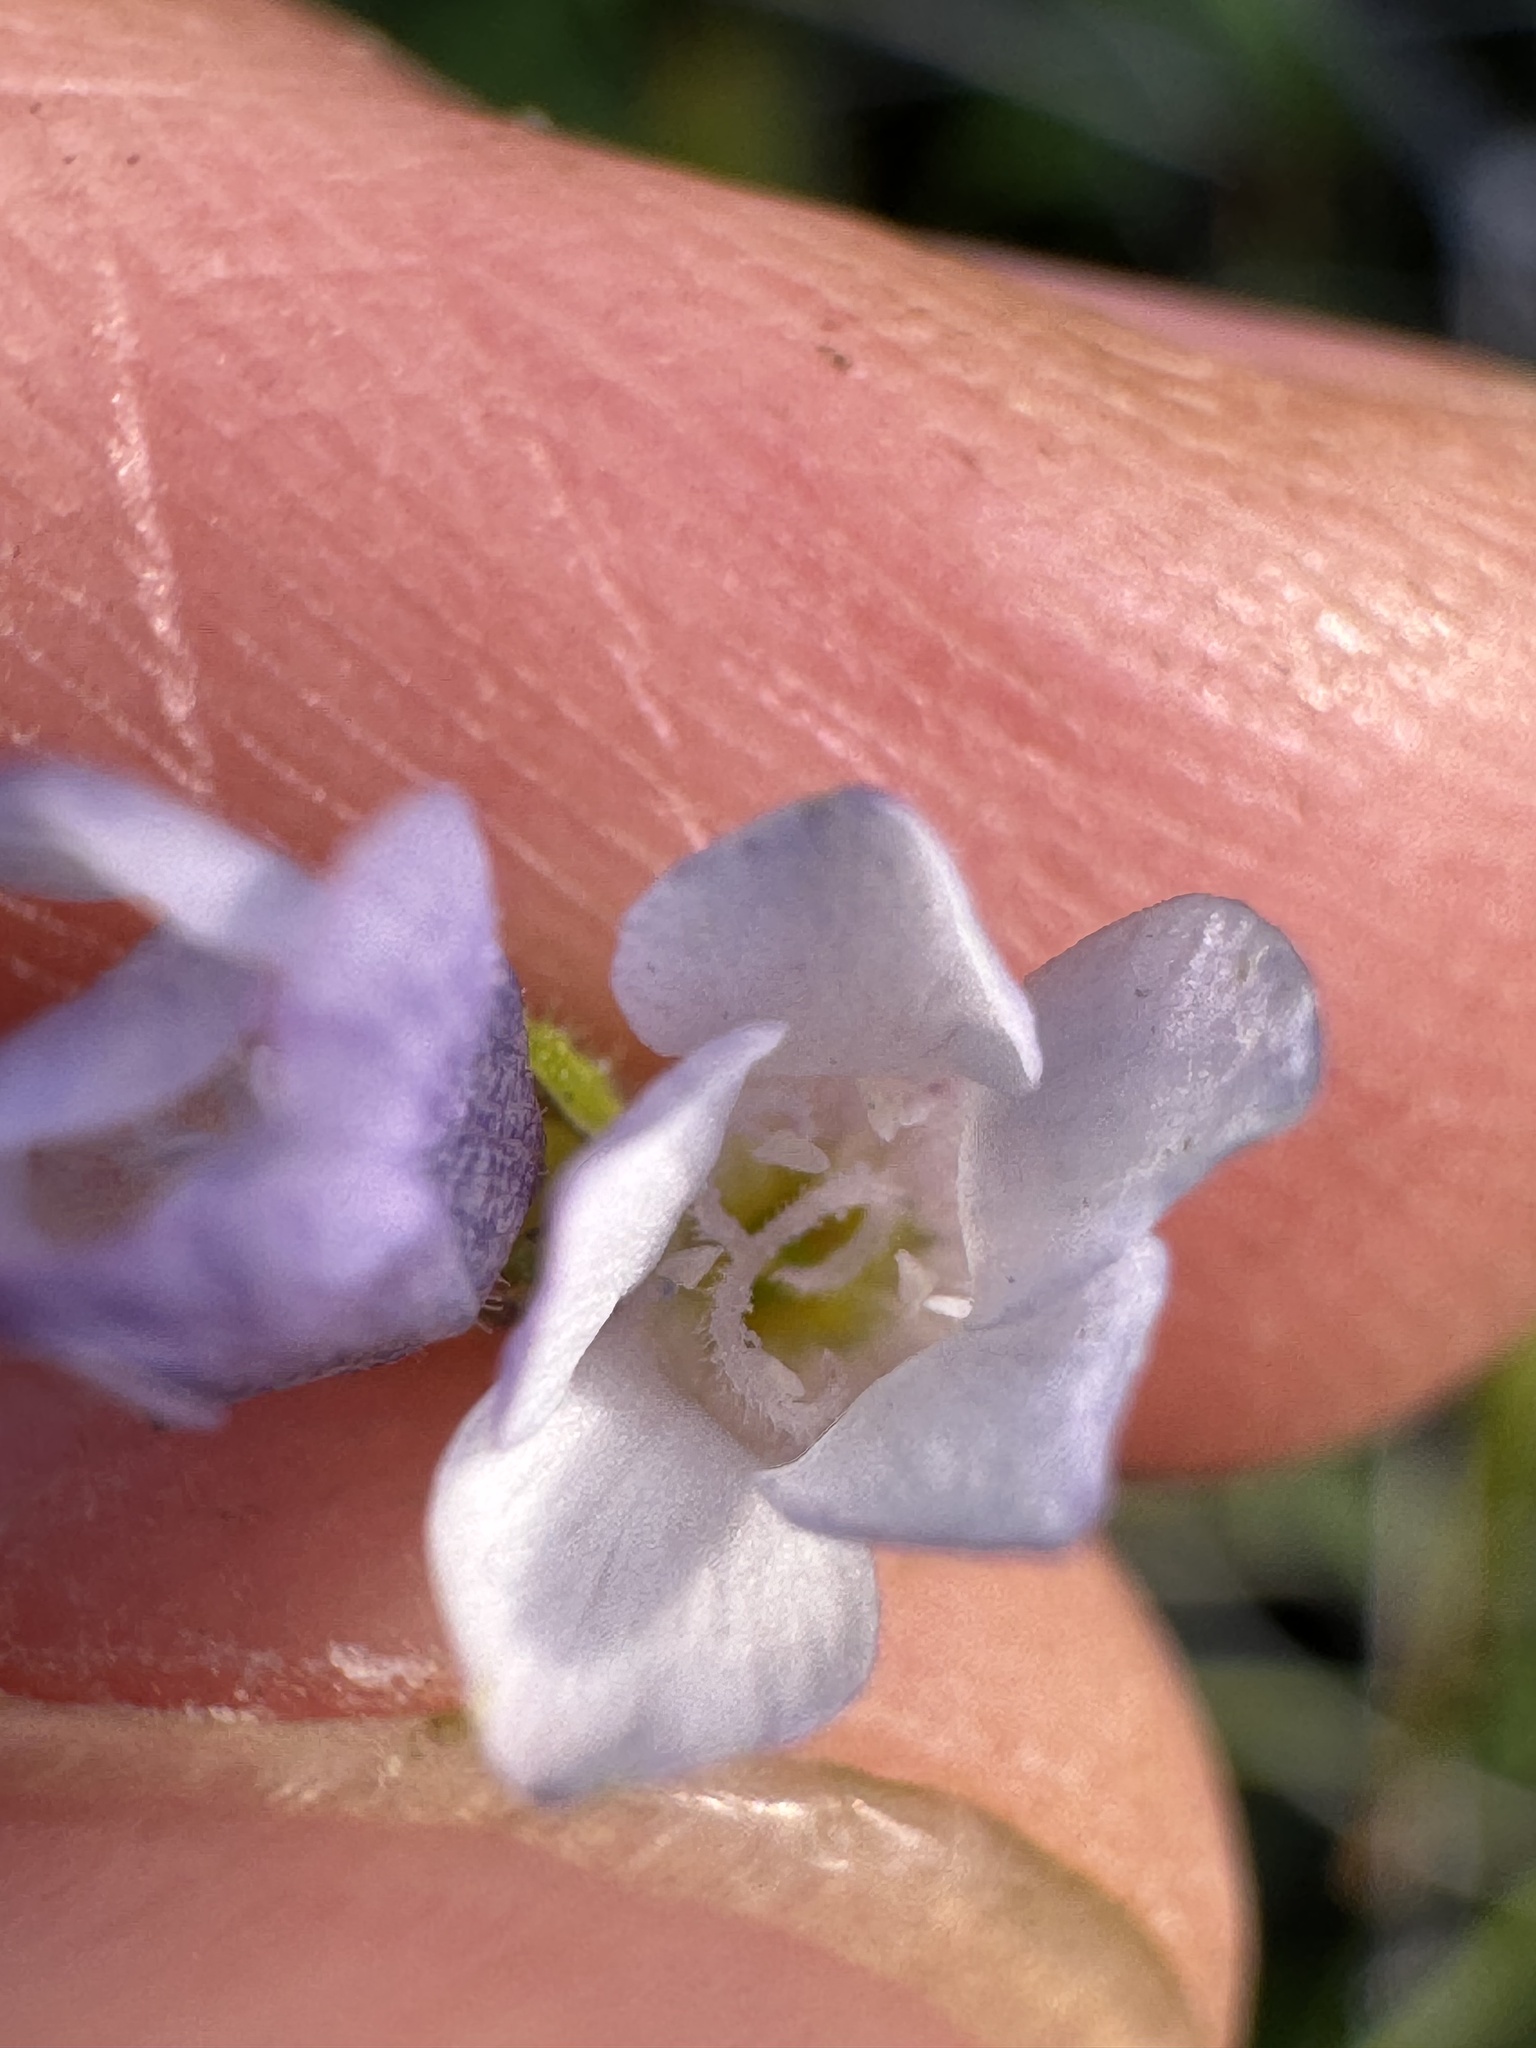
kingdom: Plantae
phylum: Tracheophyta
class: Magnoliopsida
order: Ericales
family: Polemoniaceae
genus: Gilia
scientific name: Gilia angelensis
